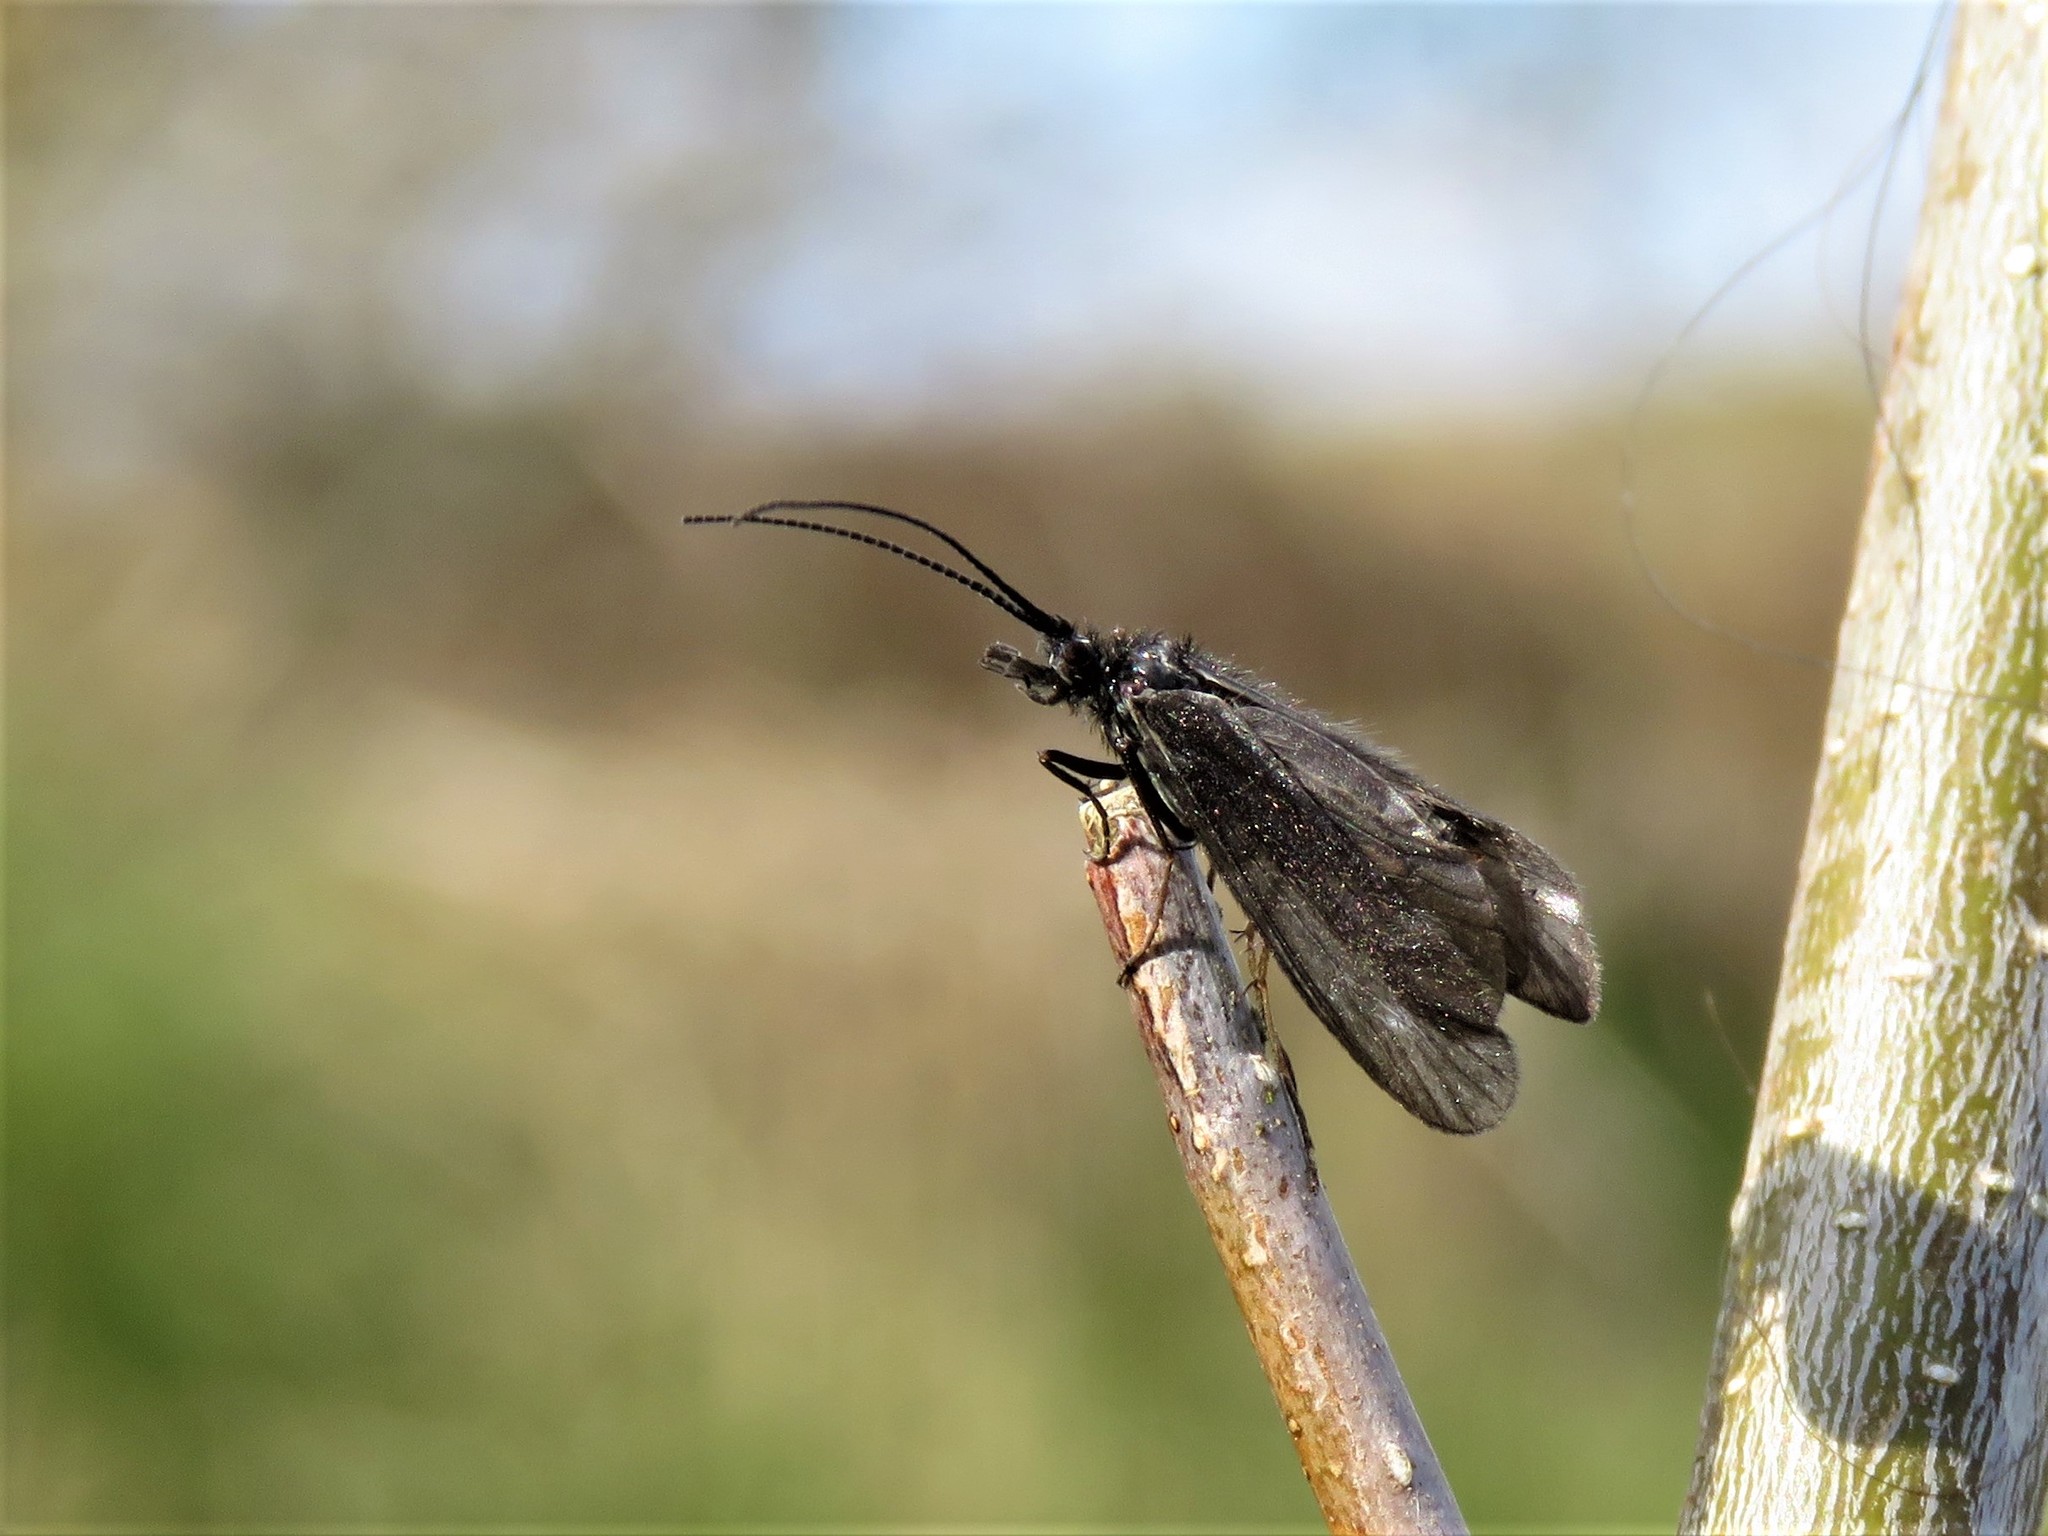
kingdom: Animalia
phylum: Arthropoda
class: Insecta
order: Trichoptera
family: Sericostomatidae
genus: Notidobia
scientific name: Notidobia ciliaris
